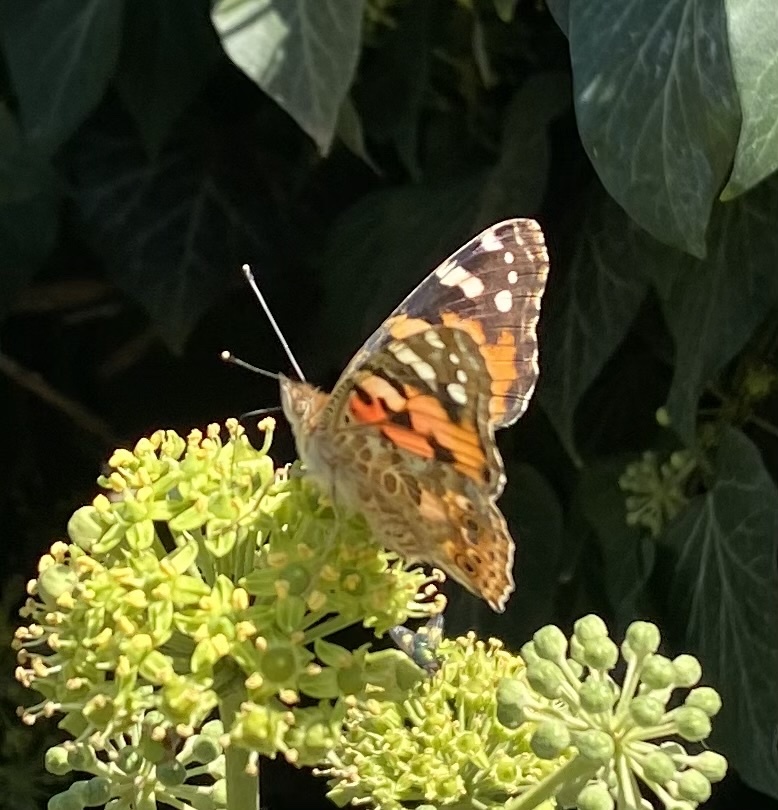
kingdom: Animalia
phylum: Arthropoda
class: Insecta
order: Lepidoptera
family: Nymphalidae
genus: Vanessa
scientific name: Vanessa cardui
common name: Painted lady
